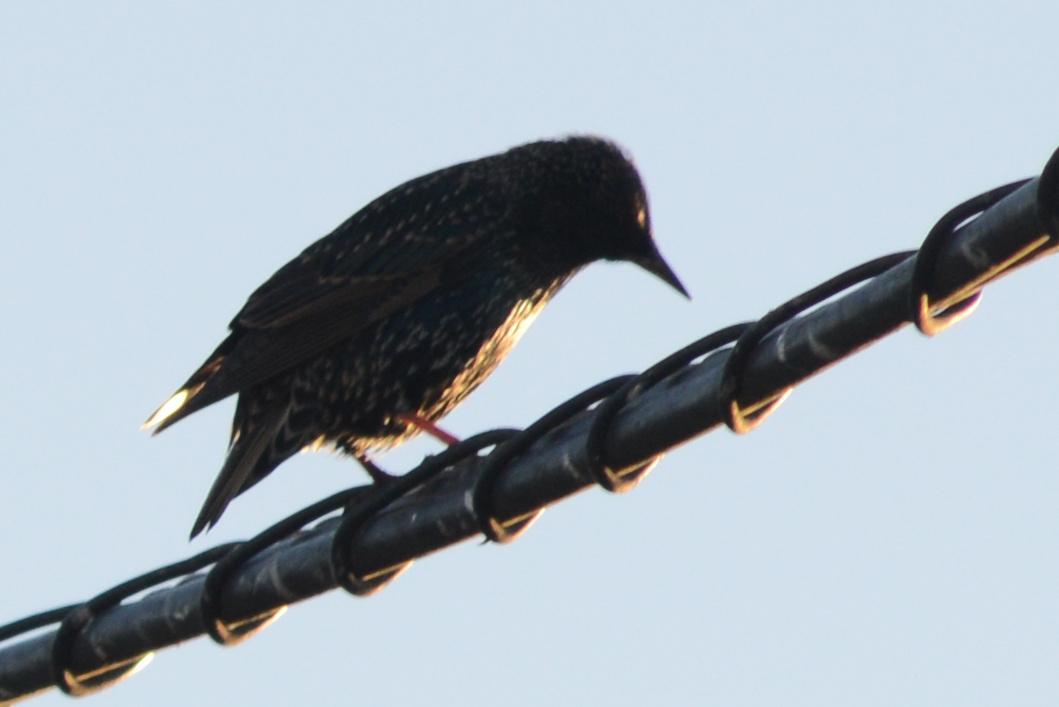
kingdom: Animalia
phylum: Chordata
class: Aves
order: Passeriformes
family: Sturnidae
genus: Sturnus
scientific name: Sturnus vulgaris
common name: Common starling
